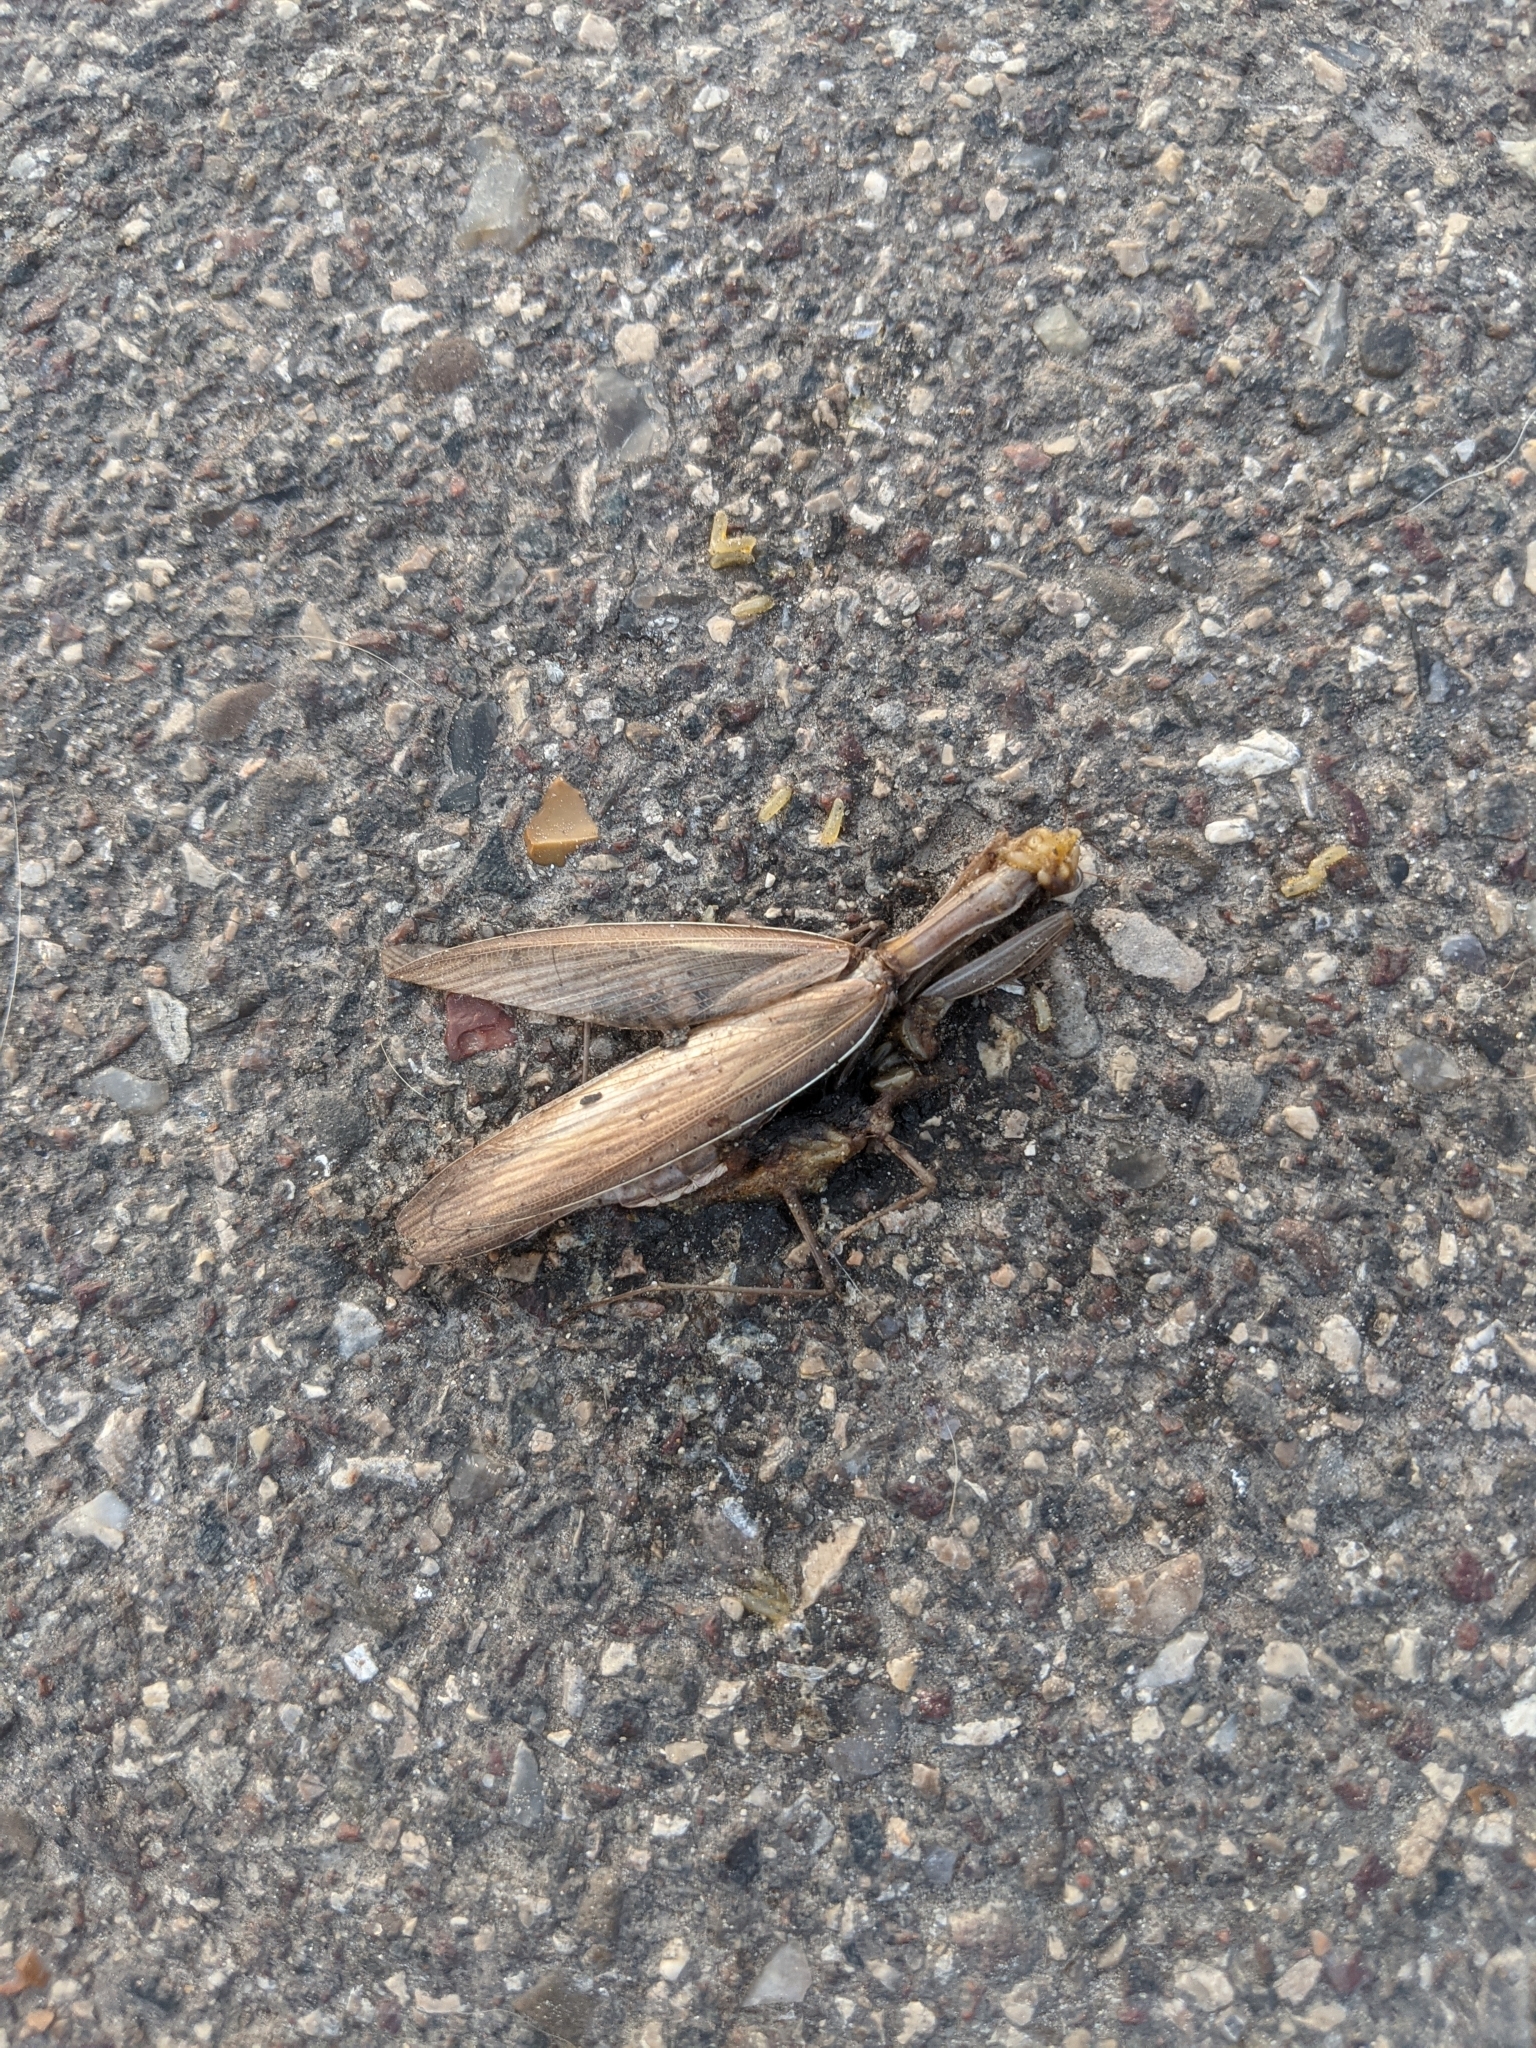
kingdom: Animalia
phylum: Arthropoda
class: Insecta
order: Mantodea
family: Mantidae
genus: Mantis
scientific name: Mantis religiosa
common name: Praying mantis
